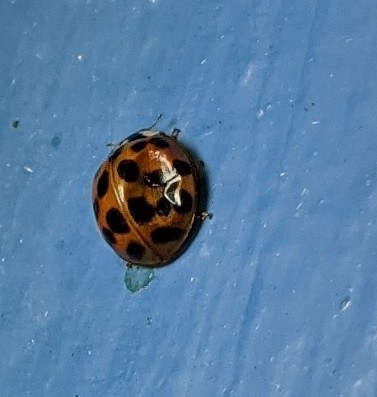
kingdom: Animalia
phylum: Arthropoda
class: Insecta
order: Coleoptera
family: Coccinellidae
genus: Harmonia
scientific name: Harmonia axyridis
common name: Harlequin ladybird
